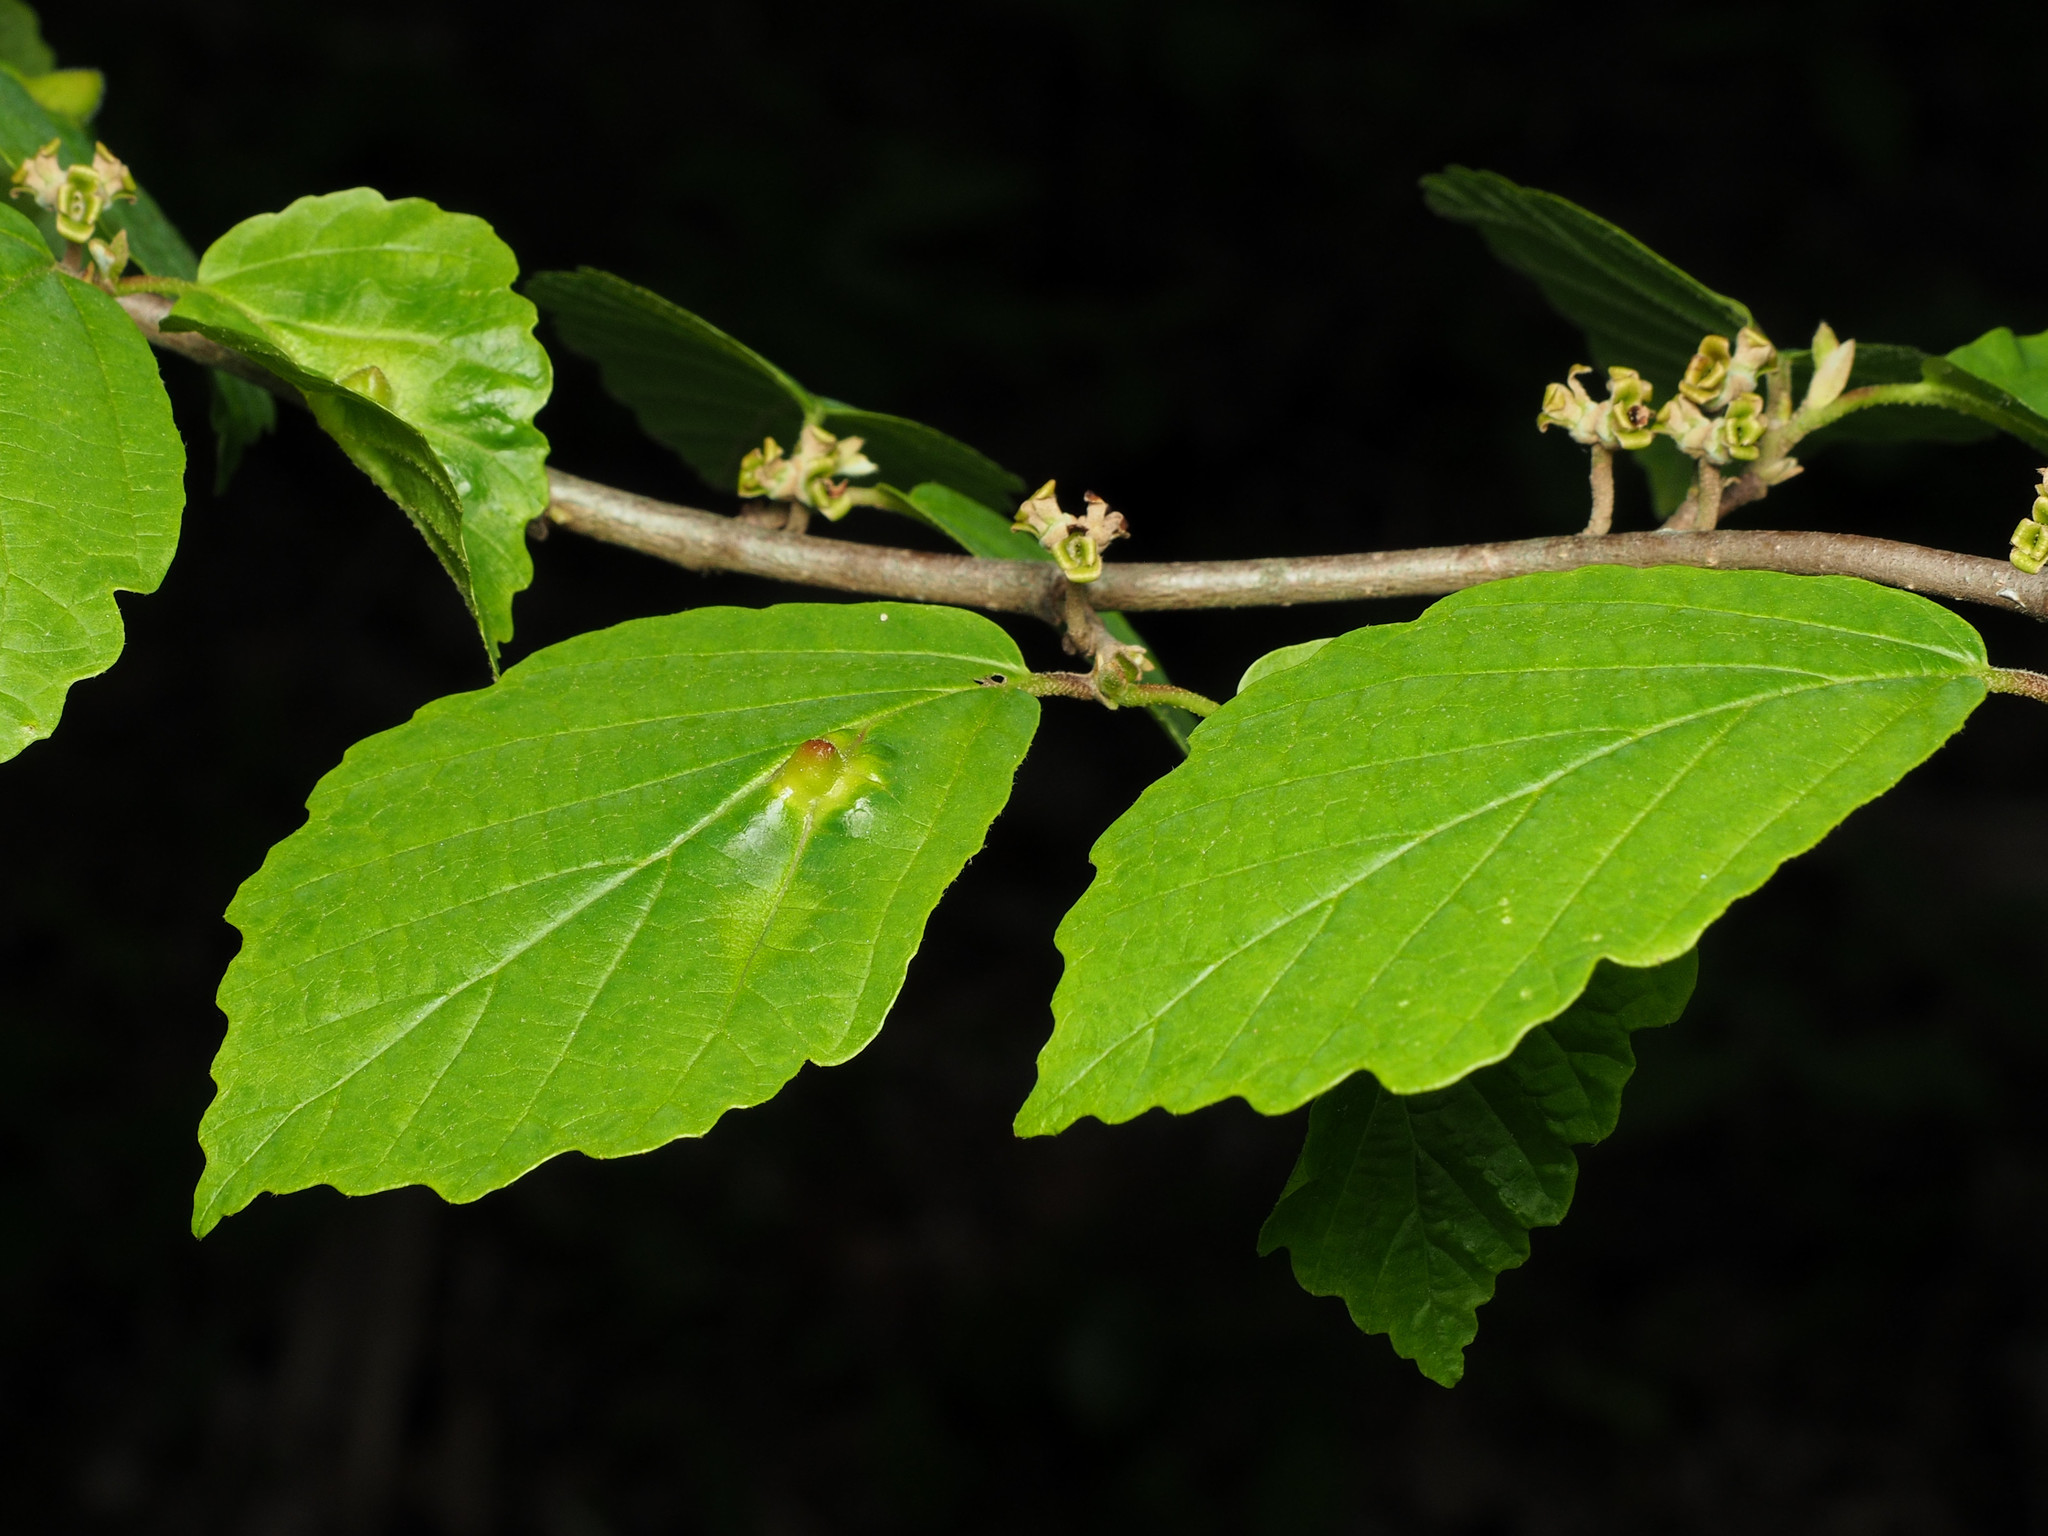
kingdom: Animalia
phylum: Arthropoda
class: Insecta
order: Hemiptera
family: Aphididae
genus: Hormaphis
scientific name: Hormaphis hamamelidis
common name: Witch-hazel cone gall aphid
